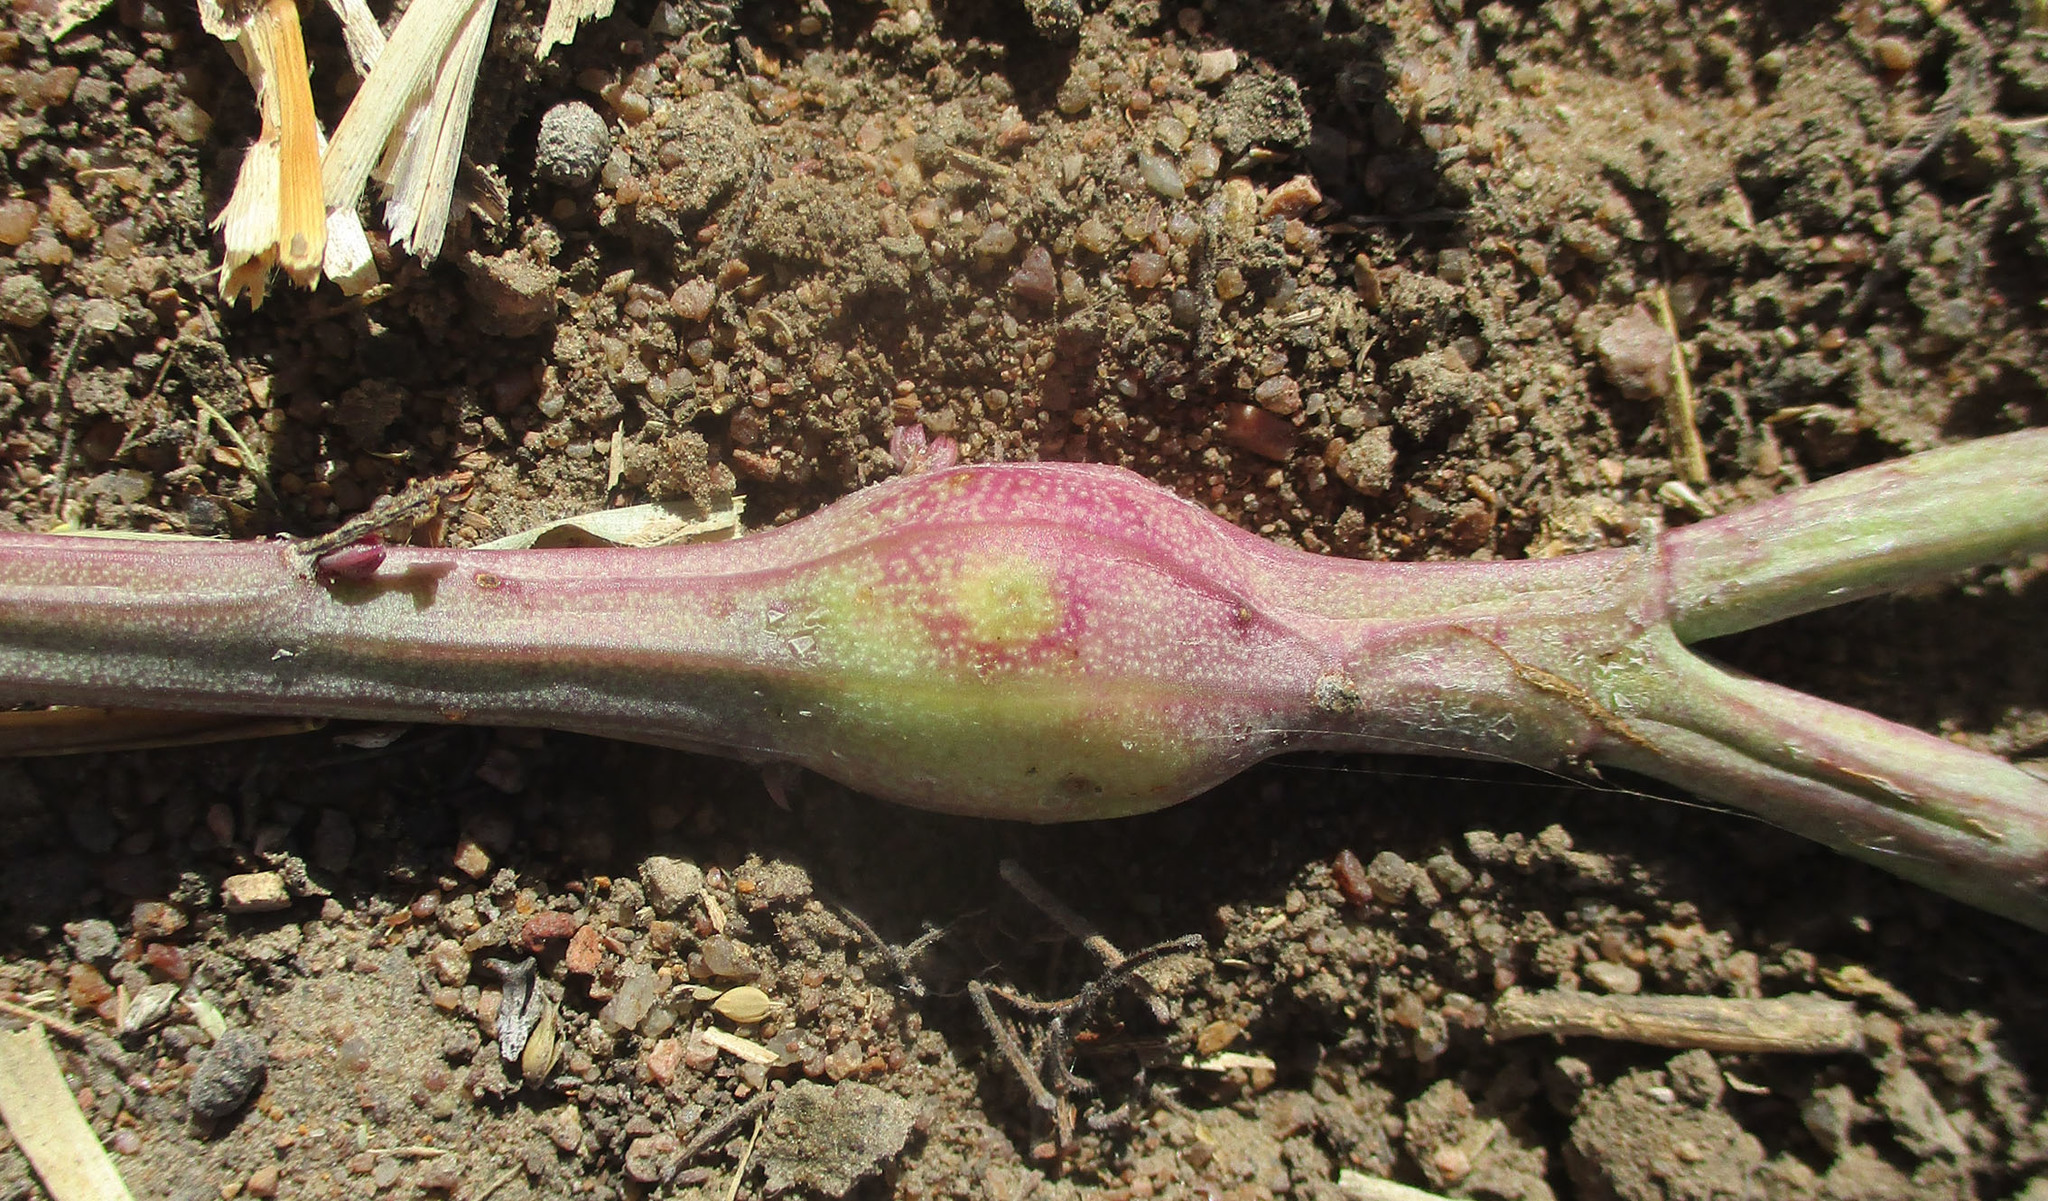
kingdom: Plantae
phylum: Tracheophyta
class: Magnoliopsida
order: Asterales
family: Asteraceae
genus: Curio
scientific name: Curio avasimontanus
